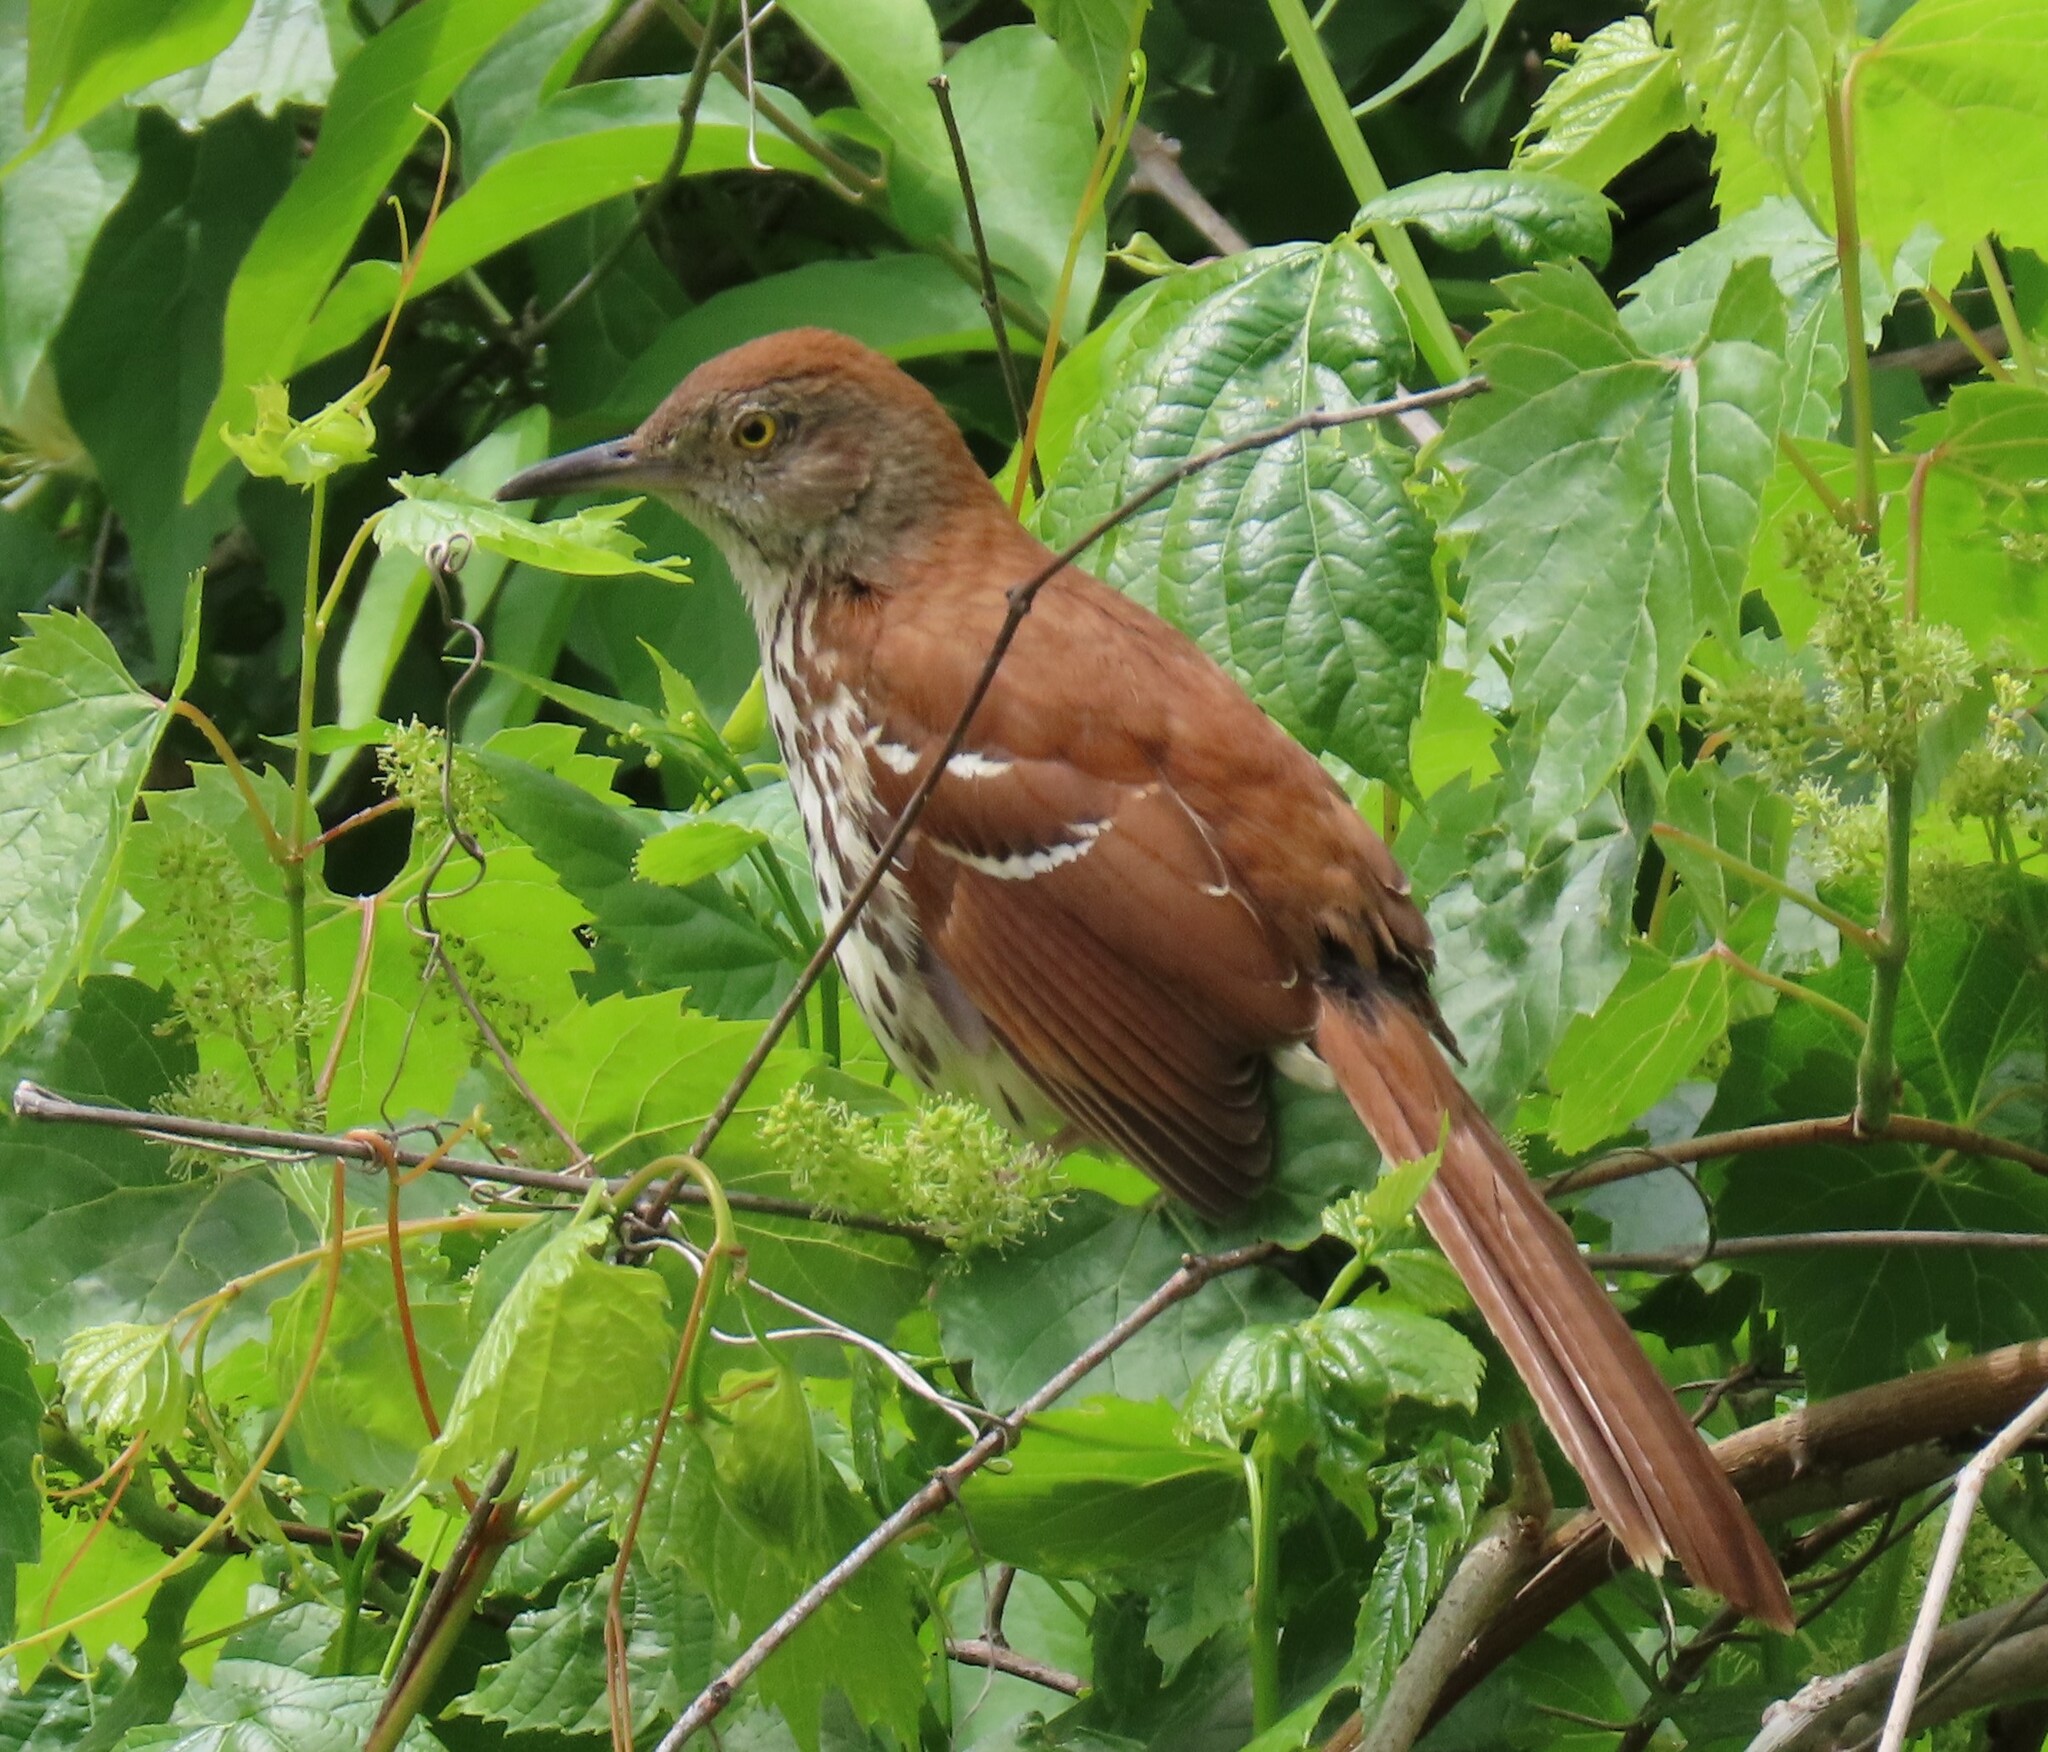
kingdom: Animalia
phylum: Chordata
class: Aves
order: Passeriformes
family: Mimidae
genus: Toxostoma
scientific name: Toxostoma rufum
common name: Brown thrasher
